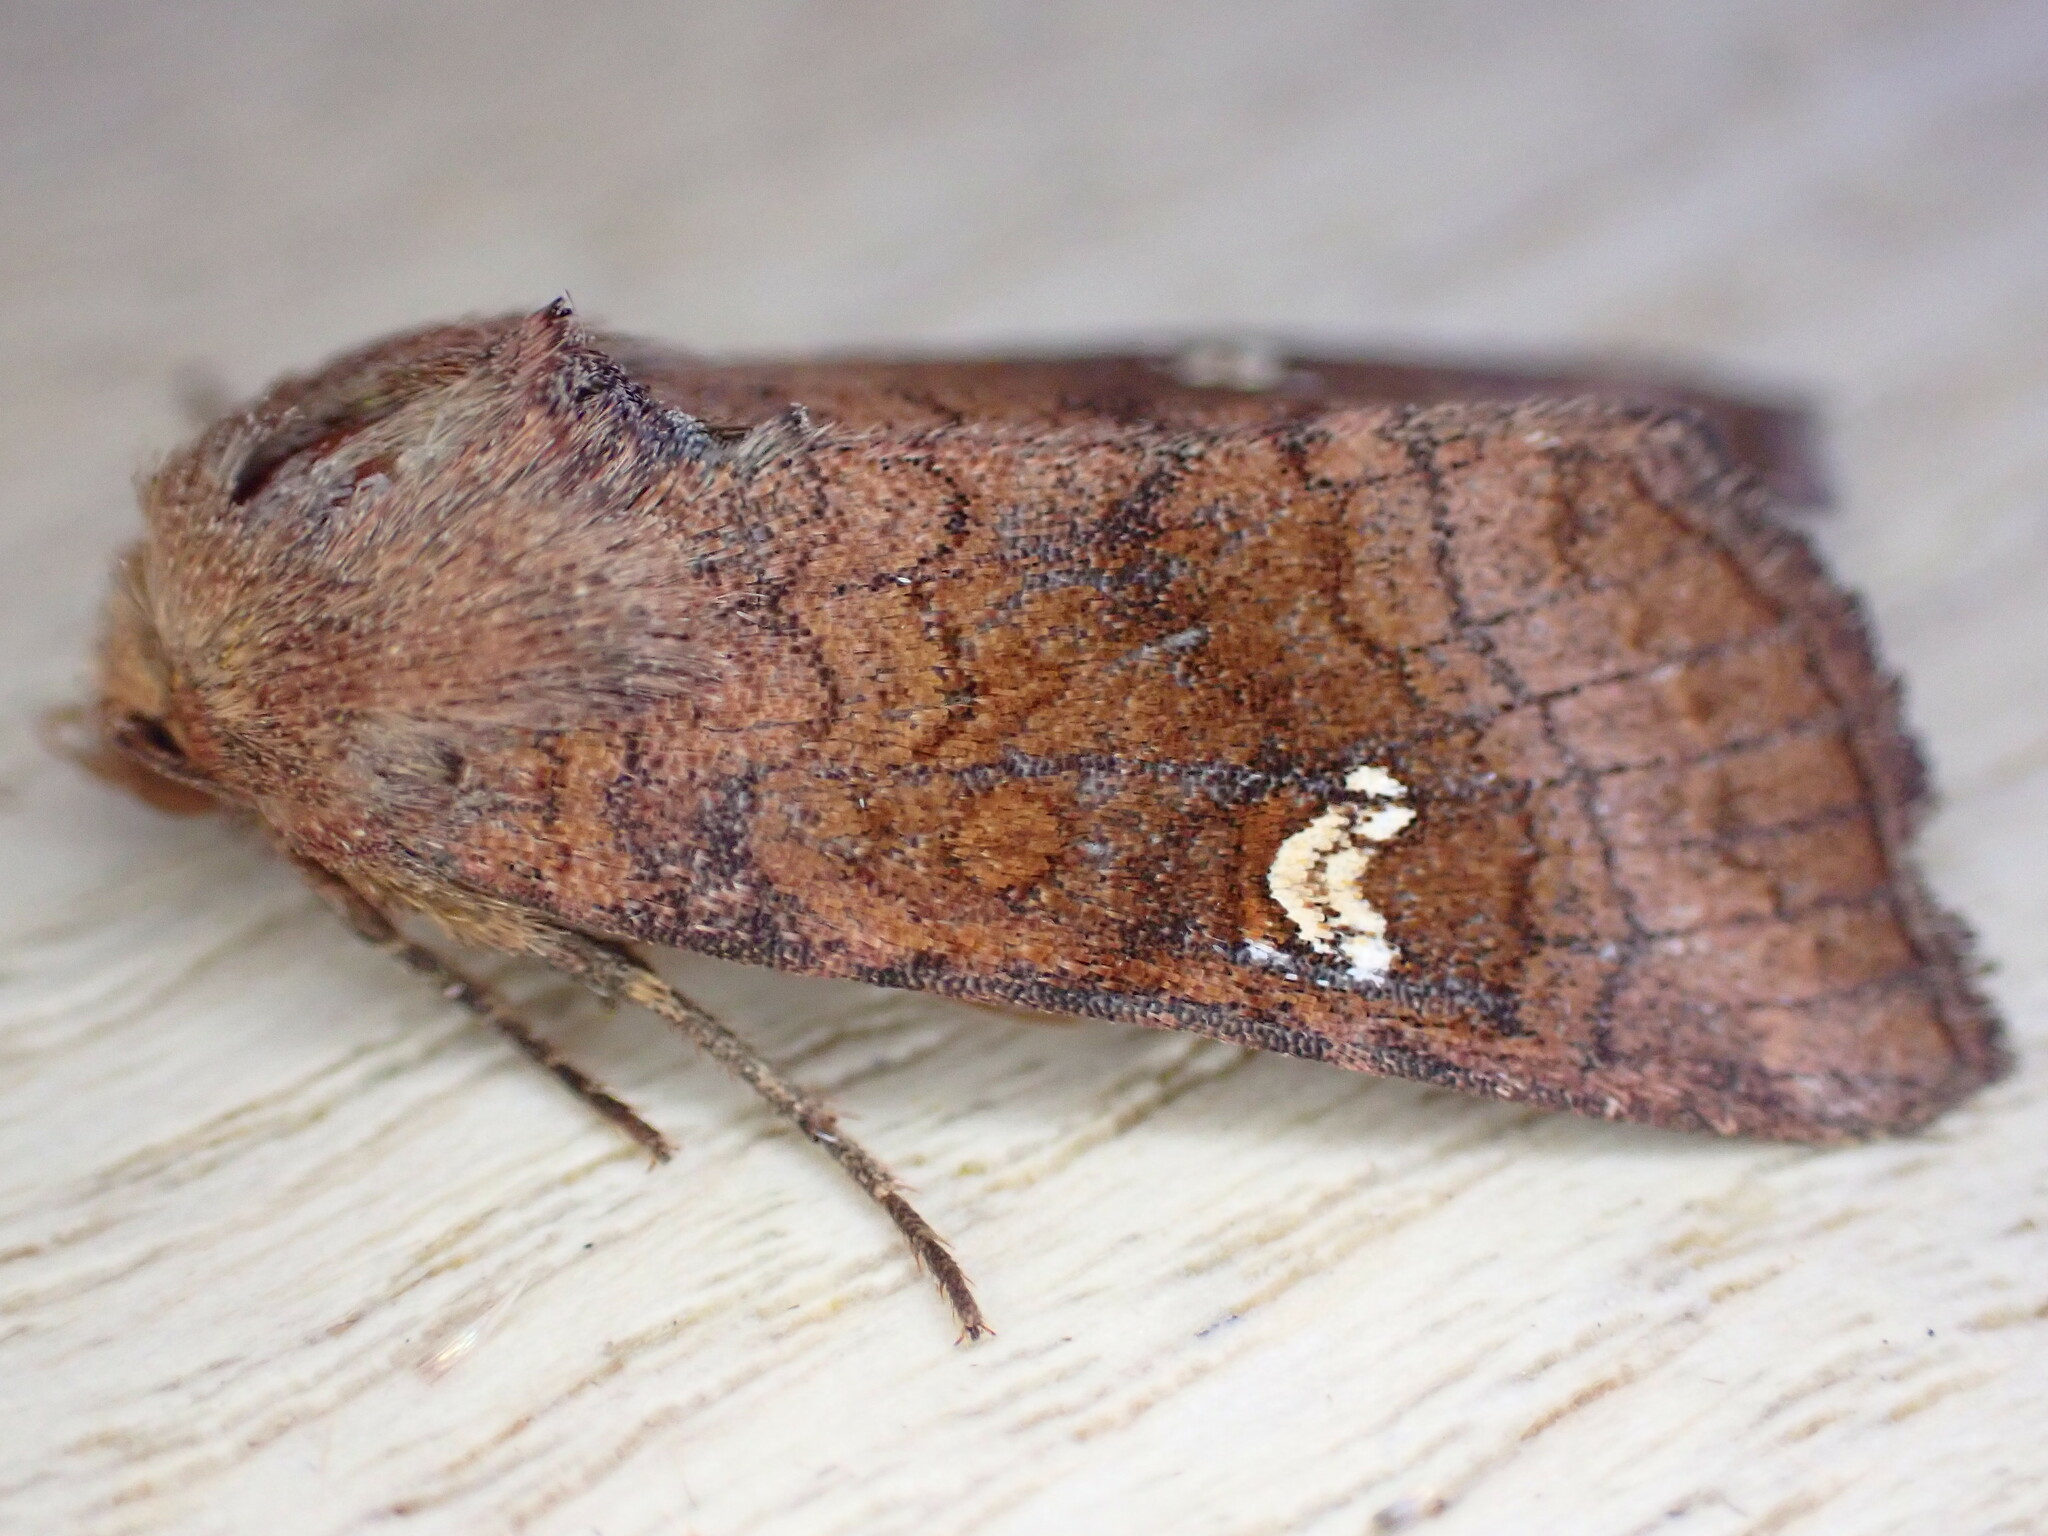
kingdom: Animalia
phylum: Arthropoda
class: Insecta
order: Lepidoptera
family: Noctuidae
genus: Amphipoea
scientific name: Amphipoea
